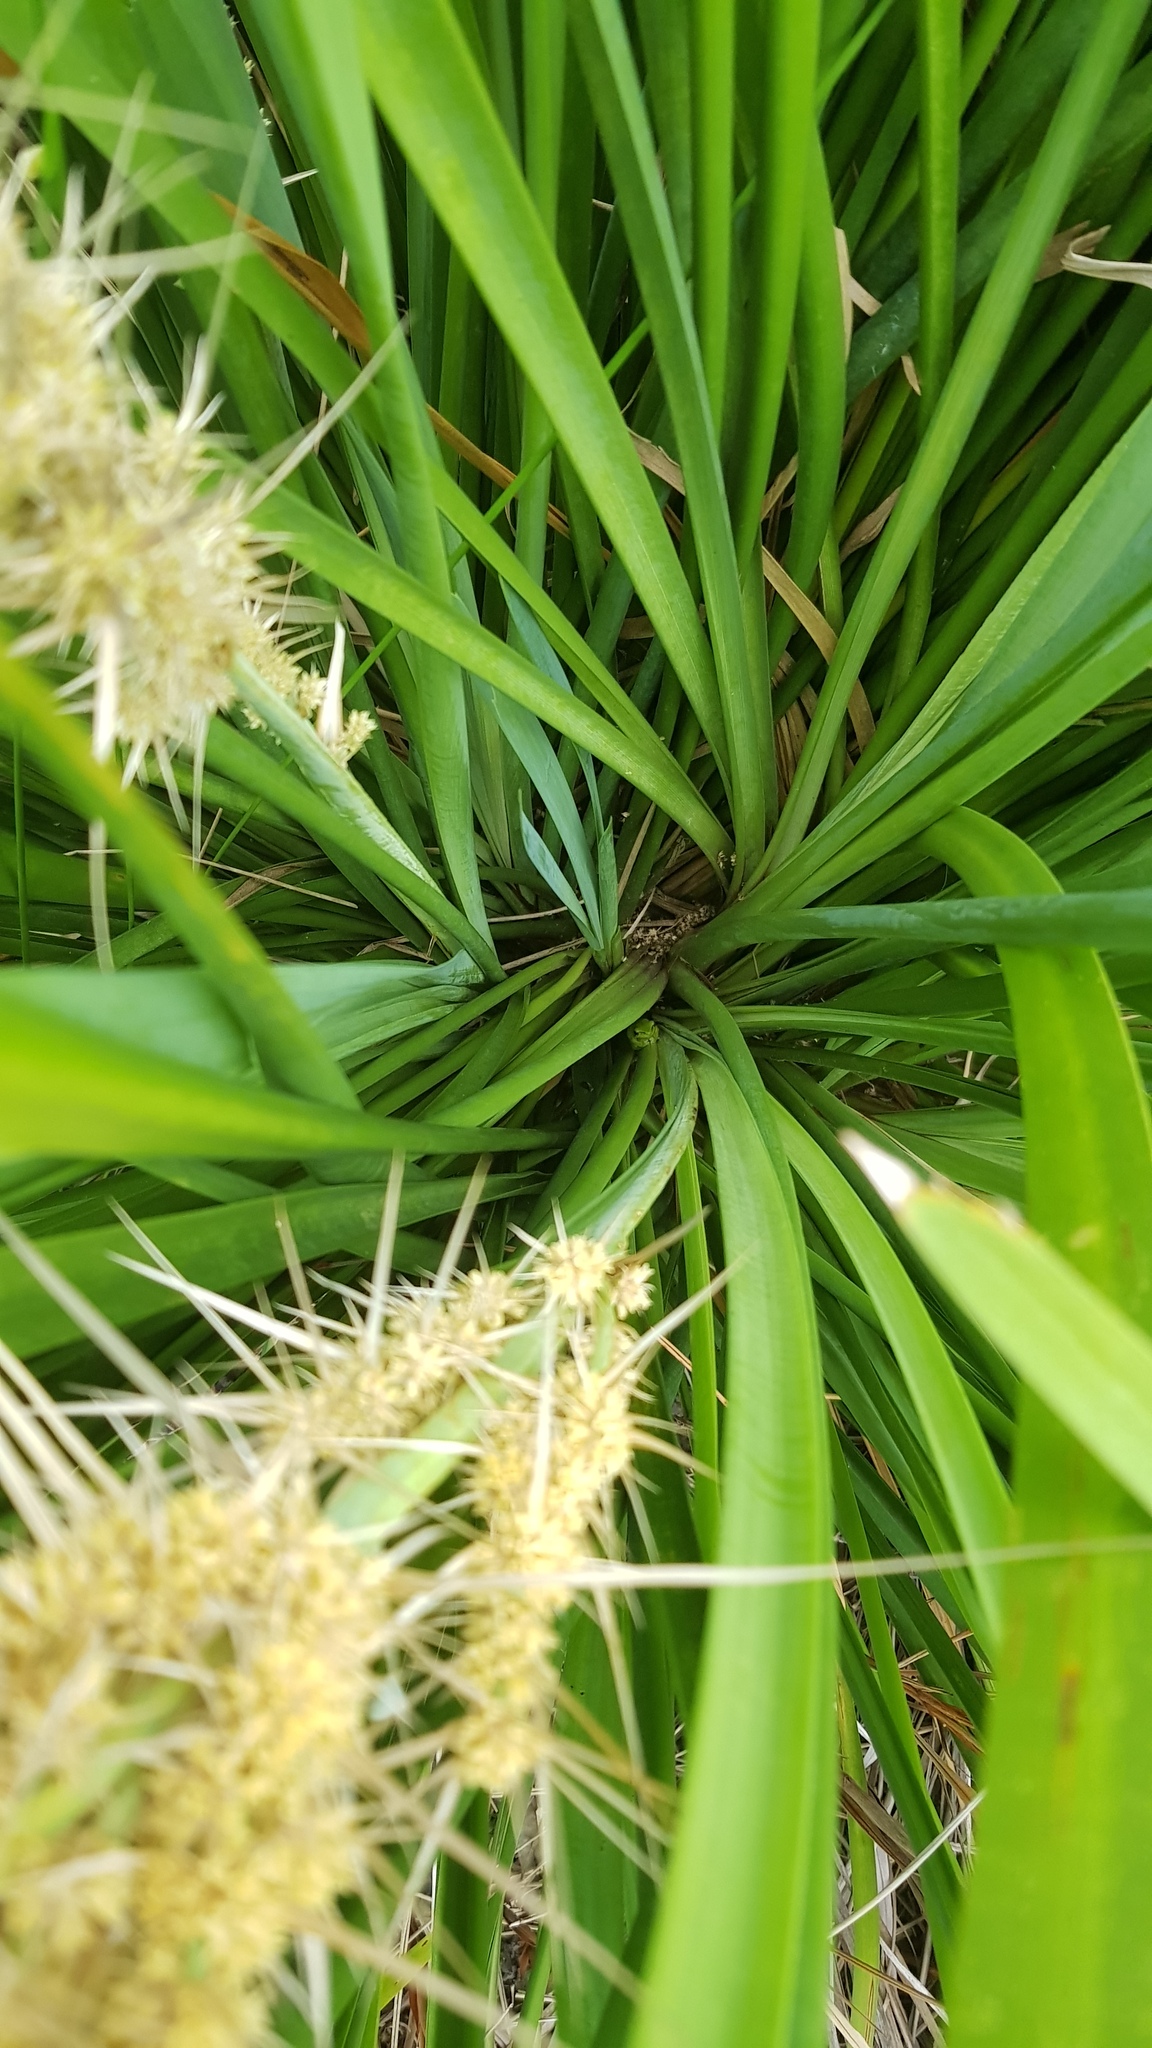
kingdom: Animalia
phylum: Chordata
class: Amphibia
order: Anura
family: Pelodryadidae
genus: Litoria
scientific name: Litoria fallax
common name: Eastern dwarf treefrog
